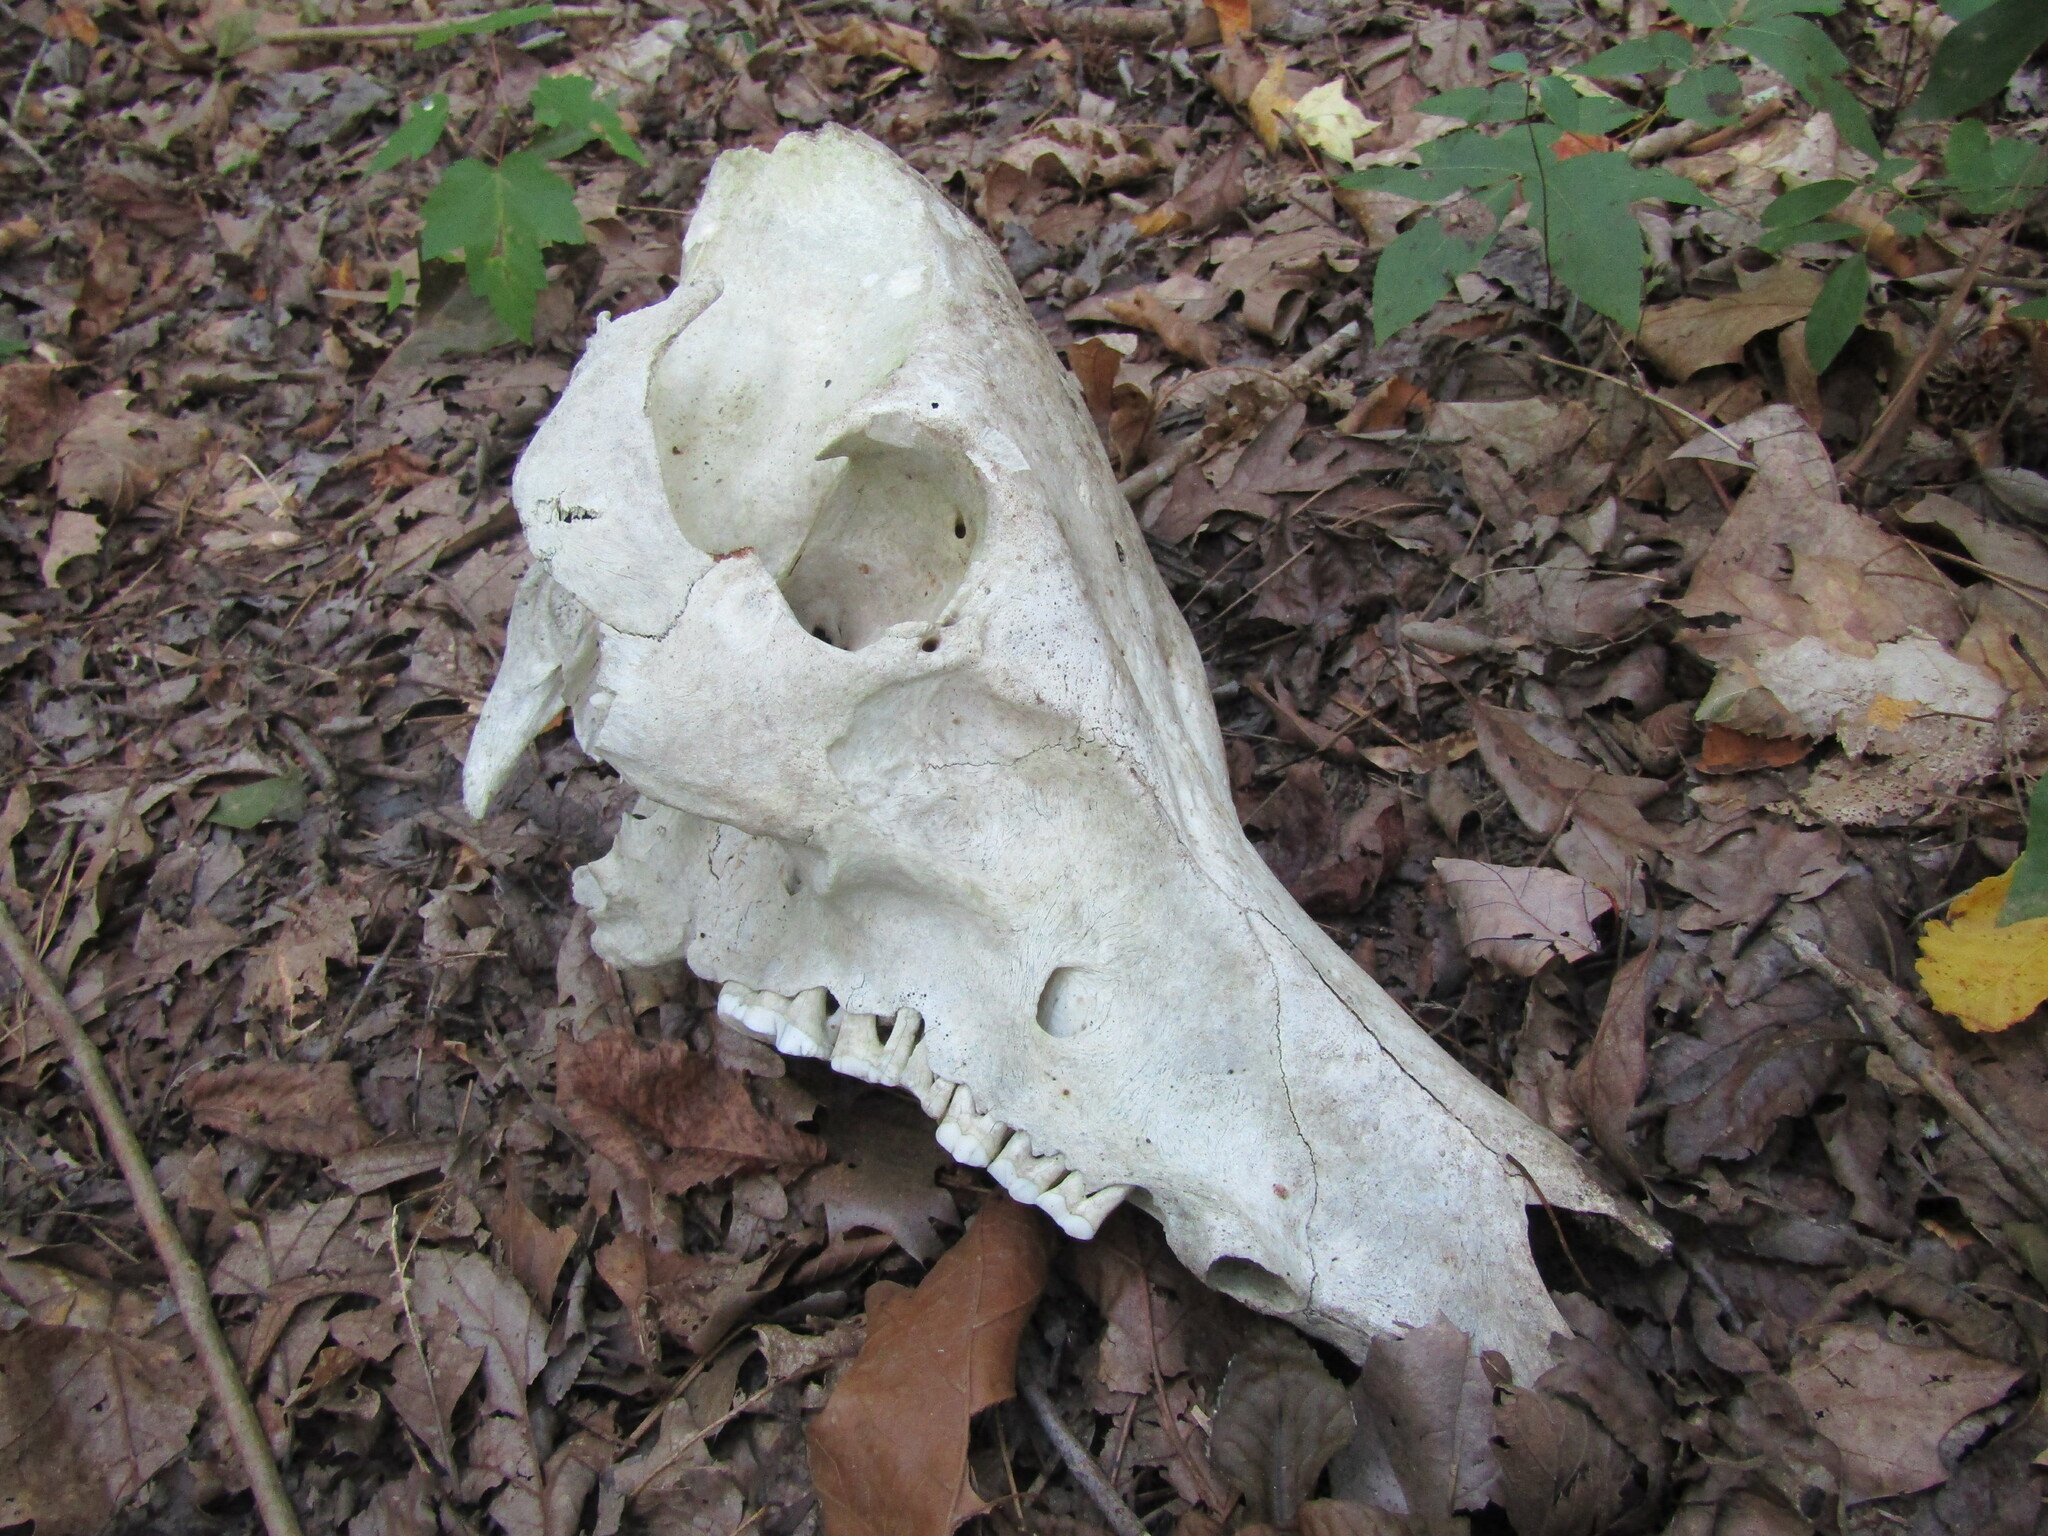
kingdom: Animalia
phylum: Chordata
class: Mammalia
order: Artiodactyla
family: Suidae
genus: Sus
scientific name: Sus scrofa
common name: Wild boar
